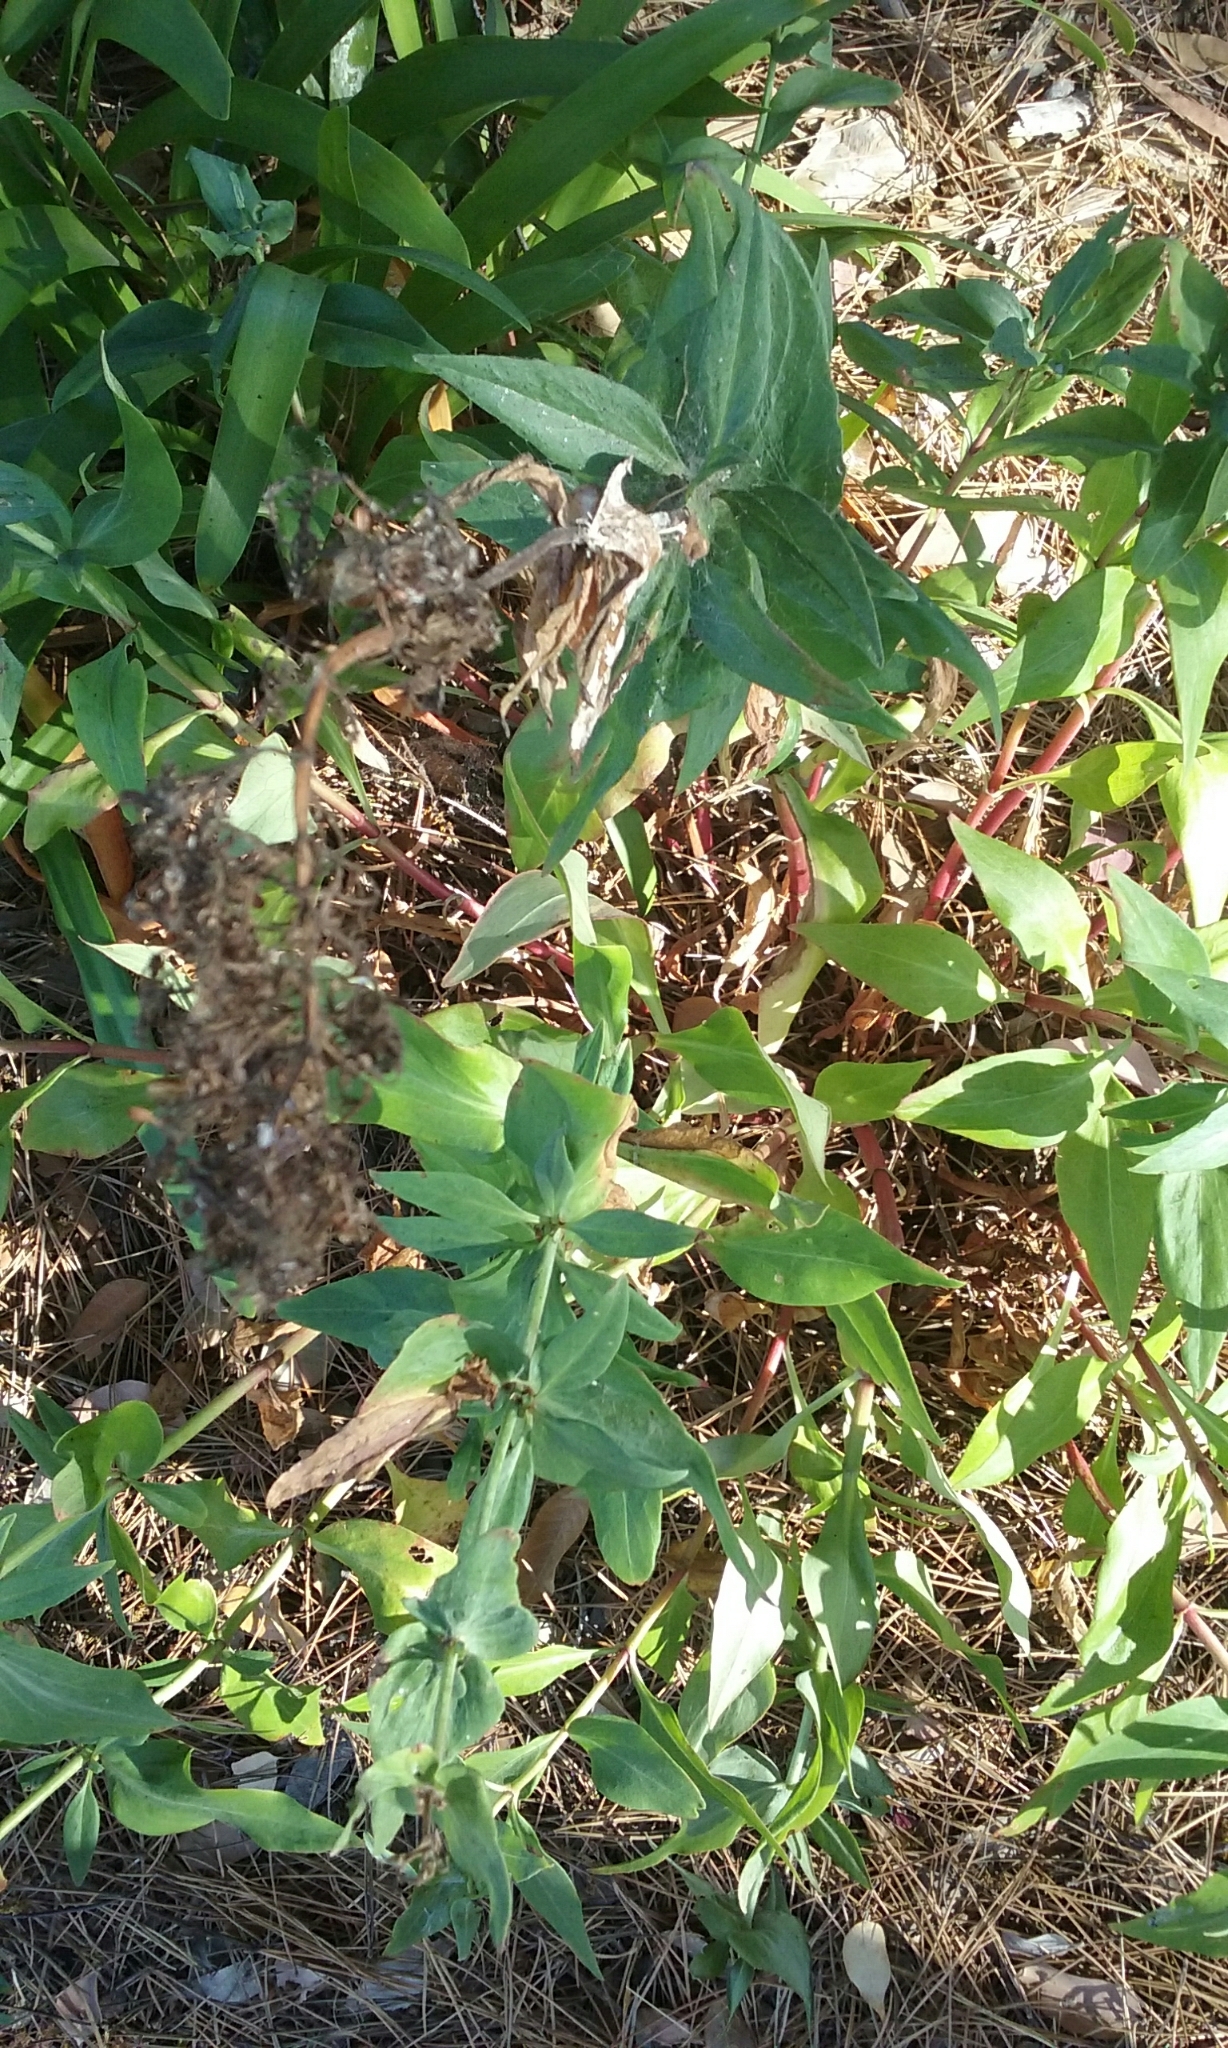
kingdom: Plantae
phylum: Tracheophyta
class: Magnoliopsida
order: Dipsacales
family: Caprifoliaceae
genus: Centranthus
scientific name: Centranthus ruber
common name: Red valerian
